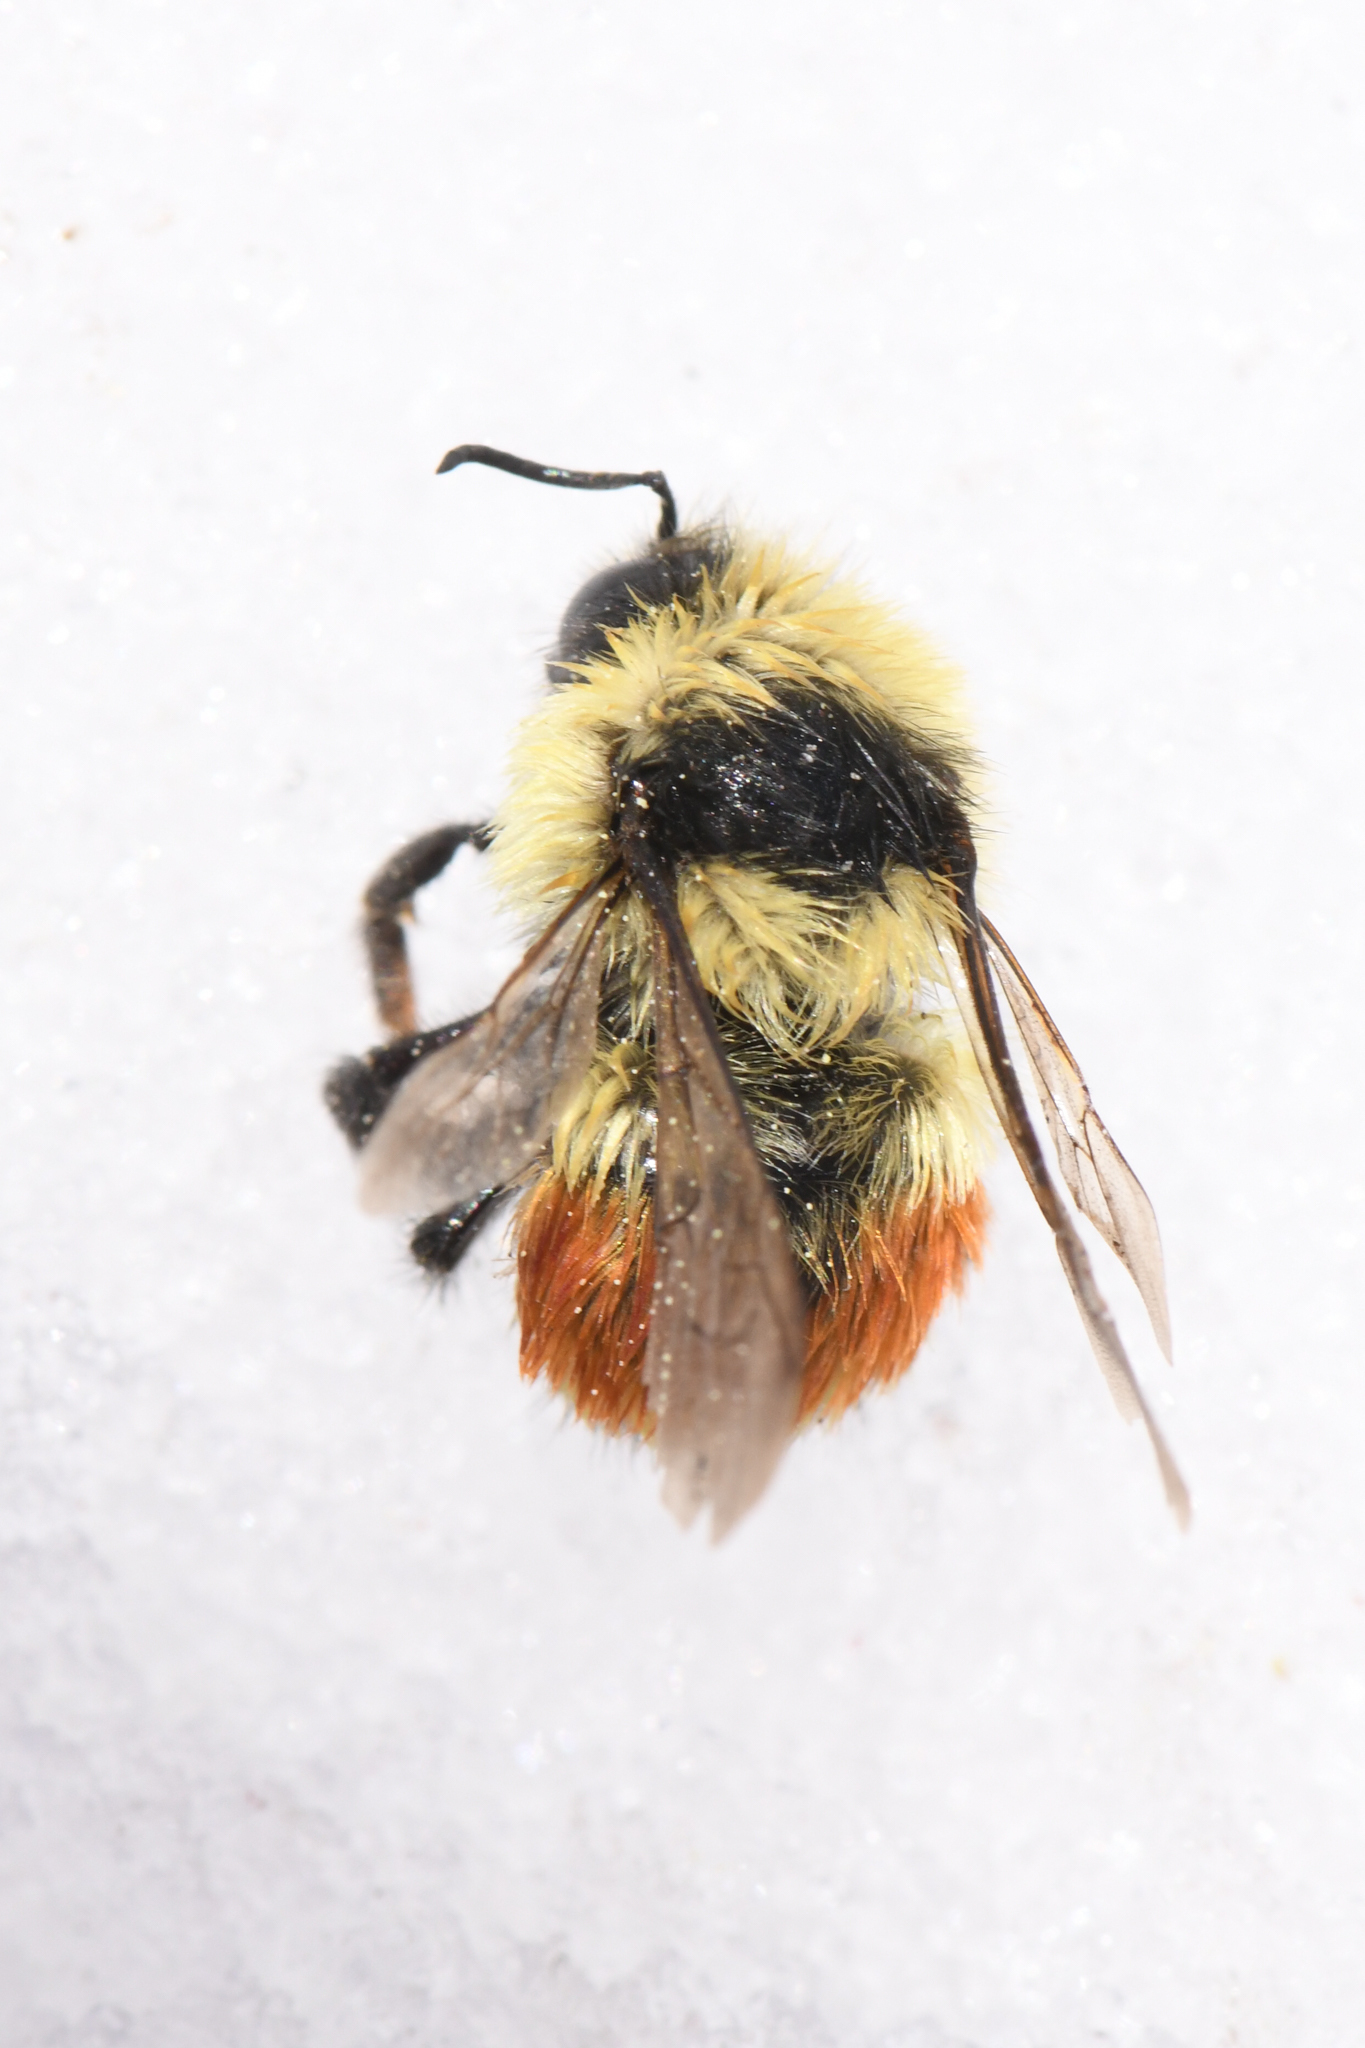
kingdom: Animalia
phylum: Arthropoda
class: Insecta
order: Hymenoptera
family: Apidae
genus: Bombus
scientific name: Bombus huntii
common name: Hunt bumble bee
